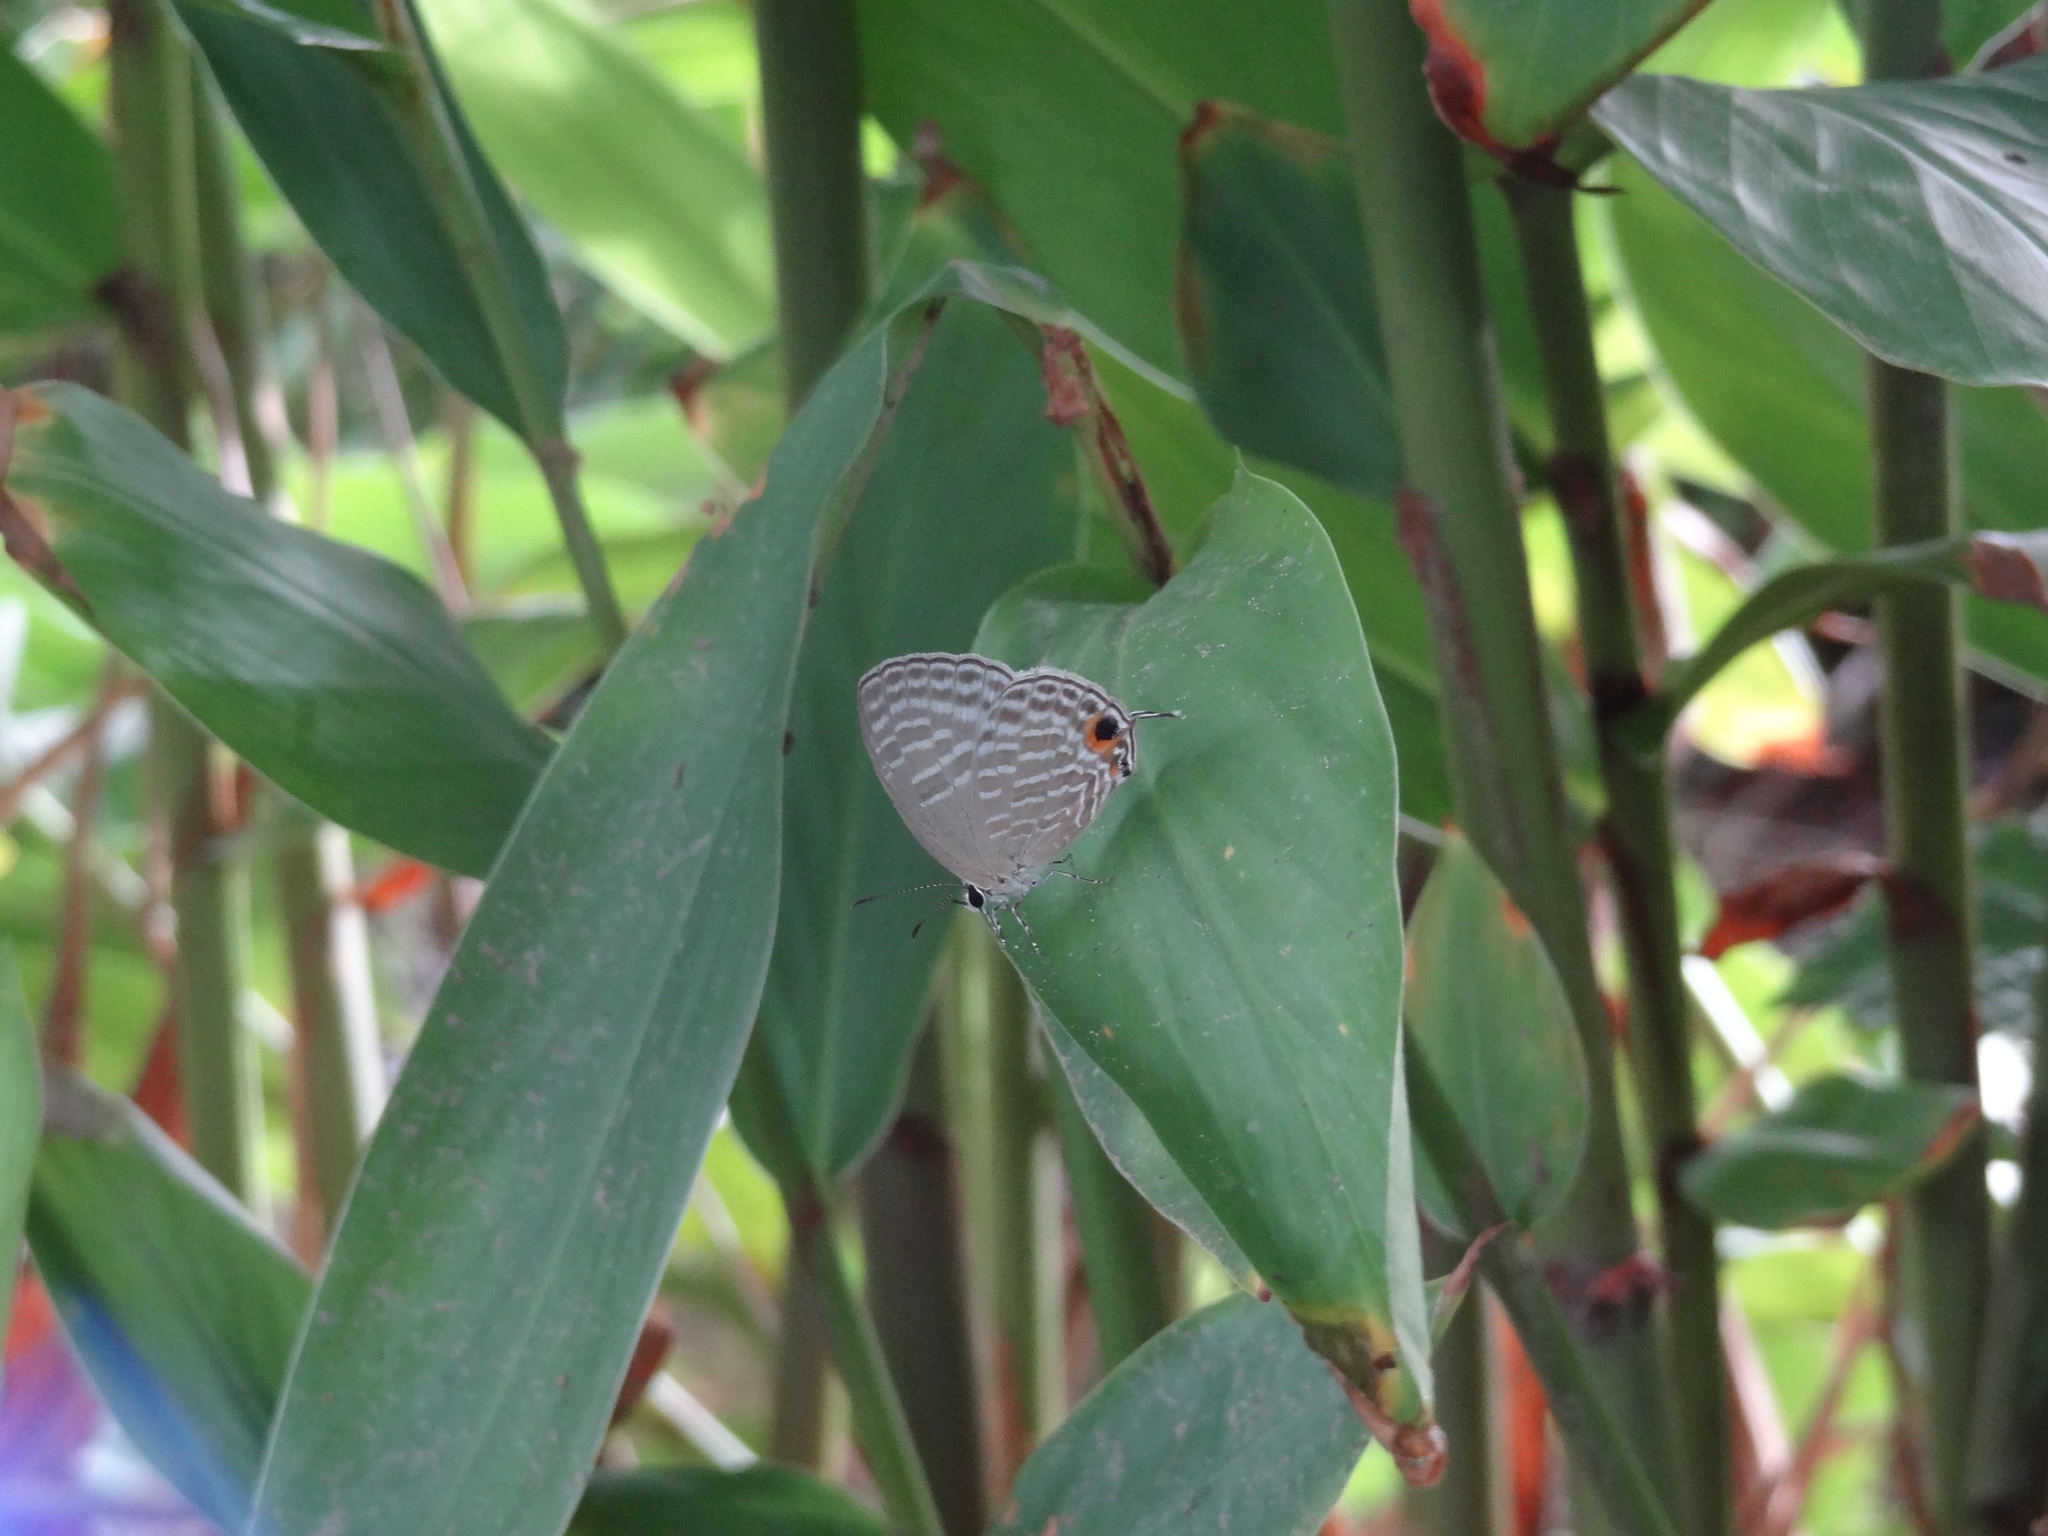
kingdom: Animalia
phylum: Arthropoda
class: Insecta
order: Lepidoptera
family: Lycaenidae
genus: Jamides
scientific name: Jamides alecto
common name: Metallic cerulean
